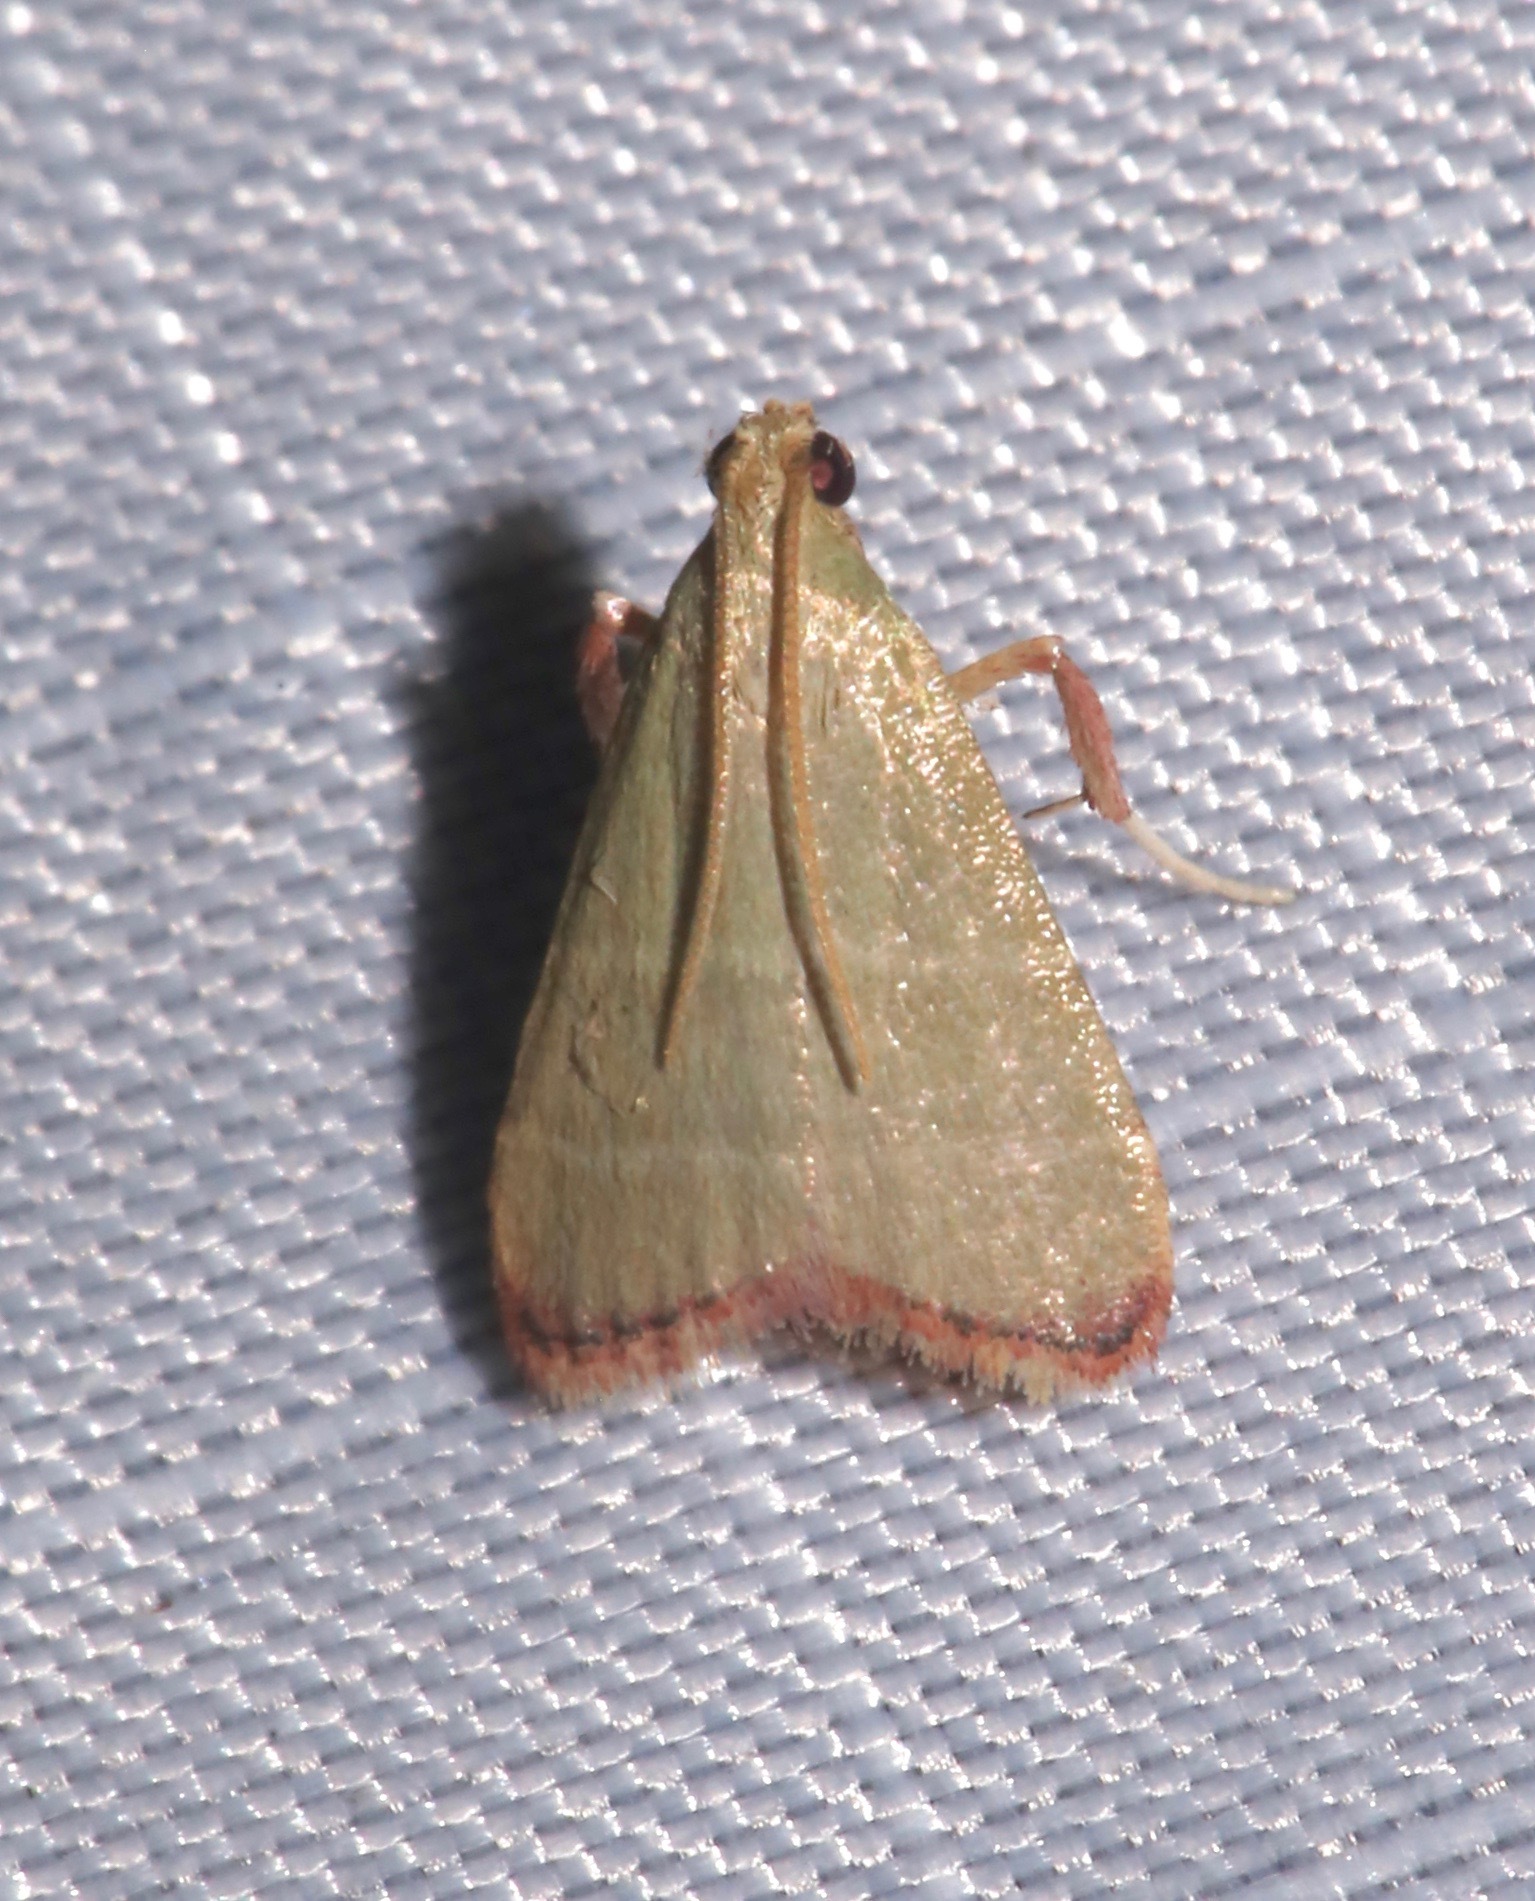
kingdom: Animalia
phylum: Arthropoda
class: Insecta
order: Lepidoptera
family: Pyralidae
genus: Arta
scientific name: Arta olivalis
